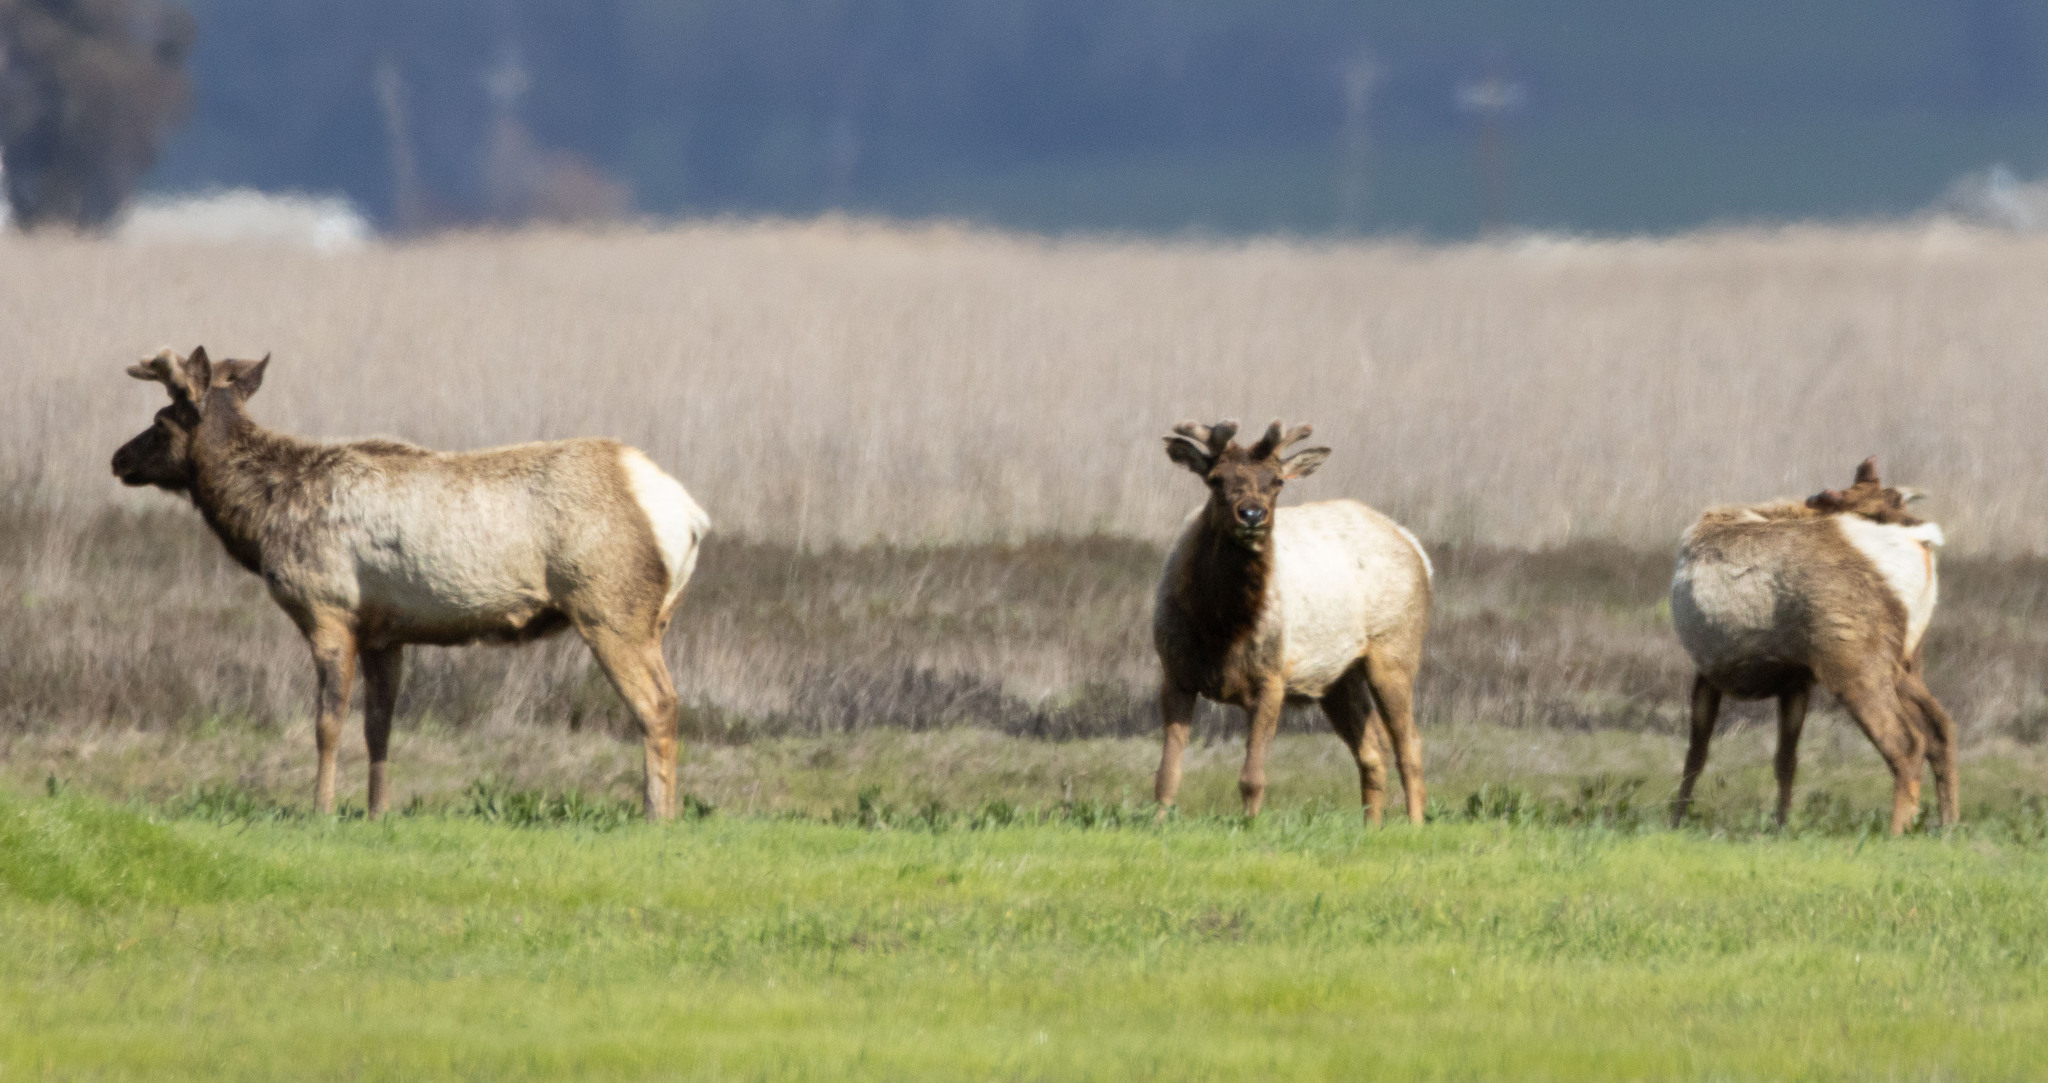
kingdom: Animalia
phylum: Chordata
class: Mammalia
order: Artiodactyla
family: Cervidae
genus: Cervus
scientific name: Cervus elaphus
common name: Red deer
